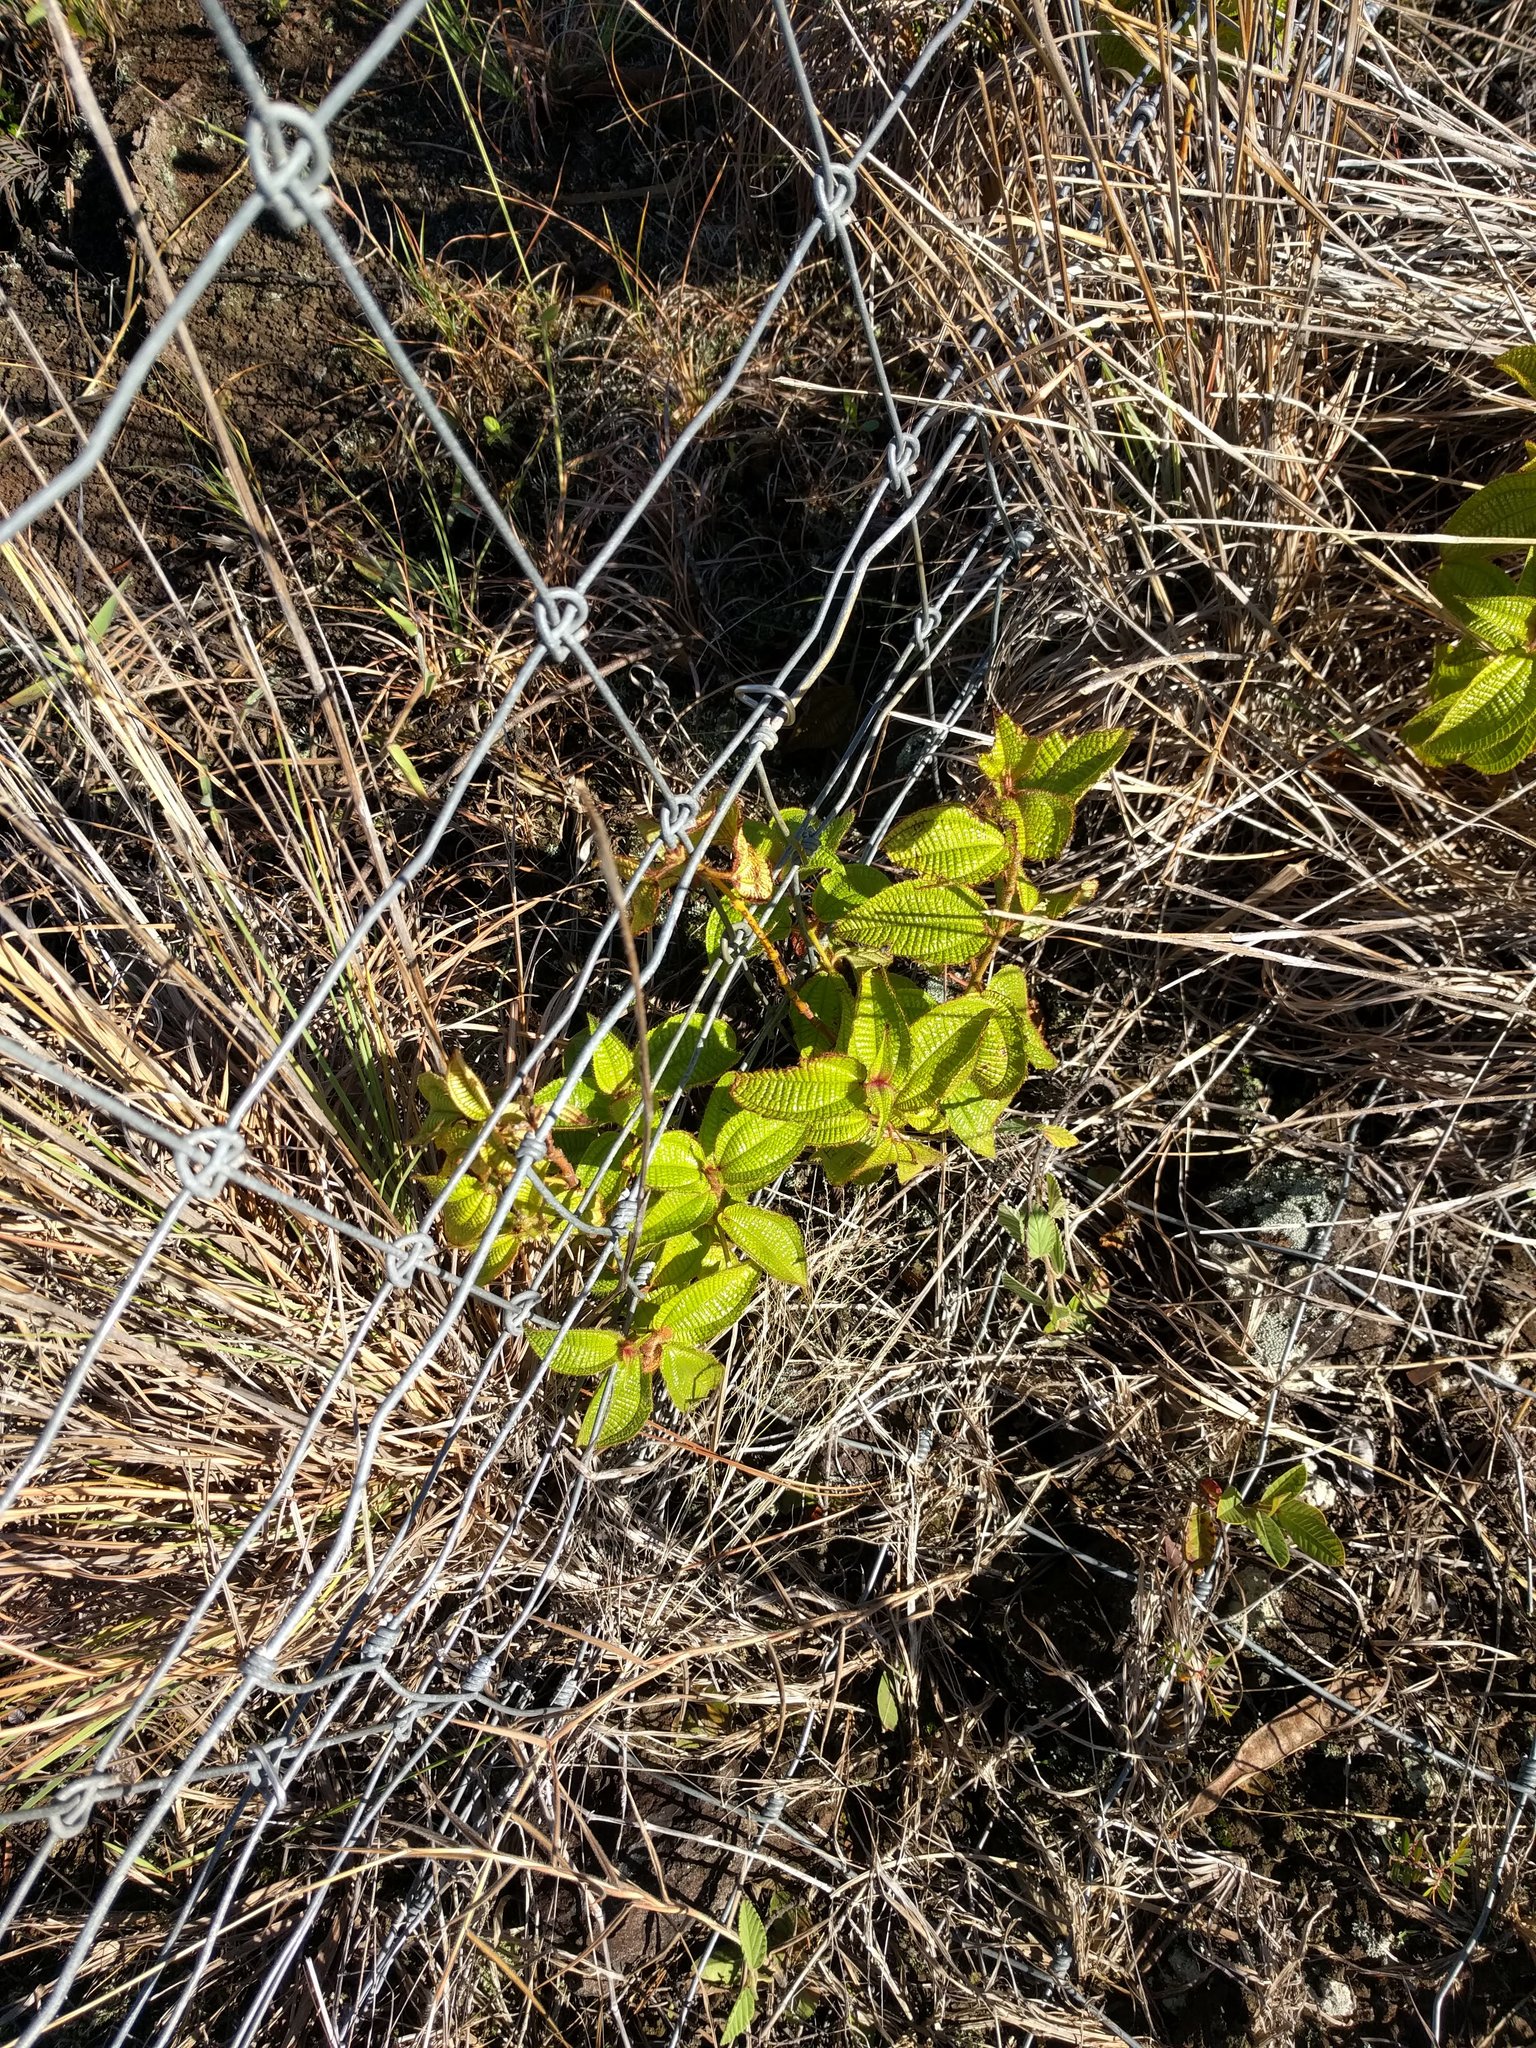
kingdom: Plantae
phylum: Tracheophyta
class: Magnoliopsida
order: Myrtales
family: Melastomataceae
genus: Miconia
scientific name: Miconia crenata
